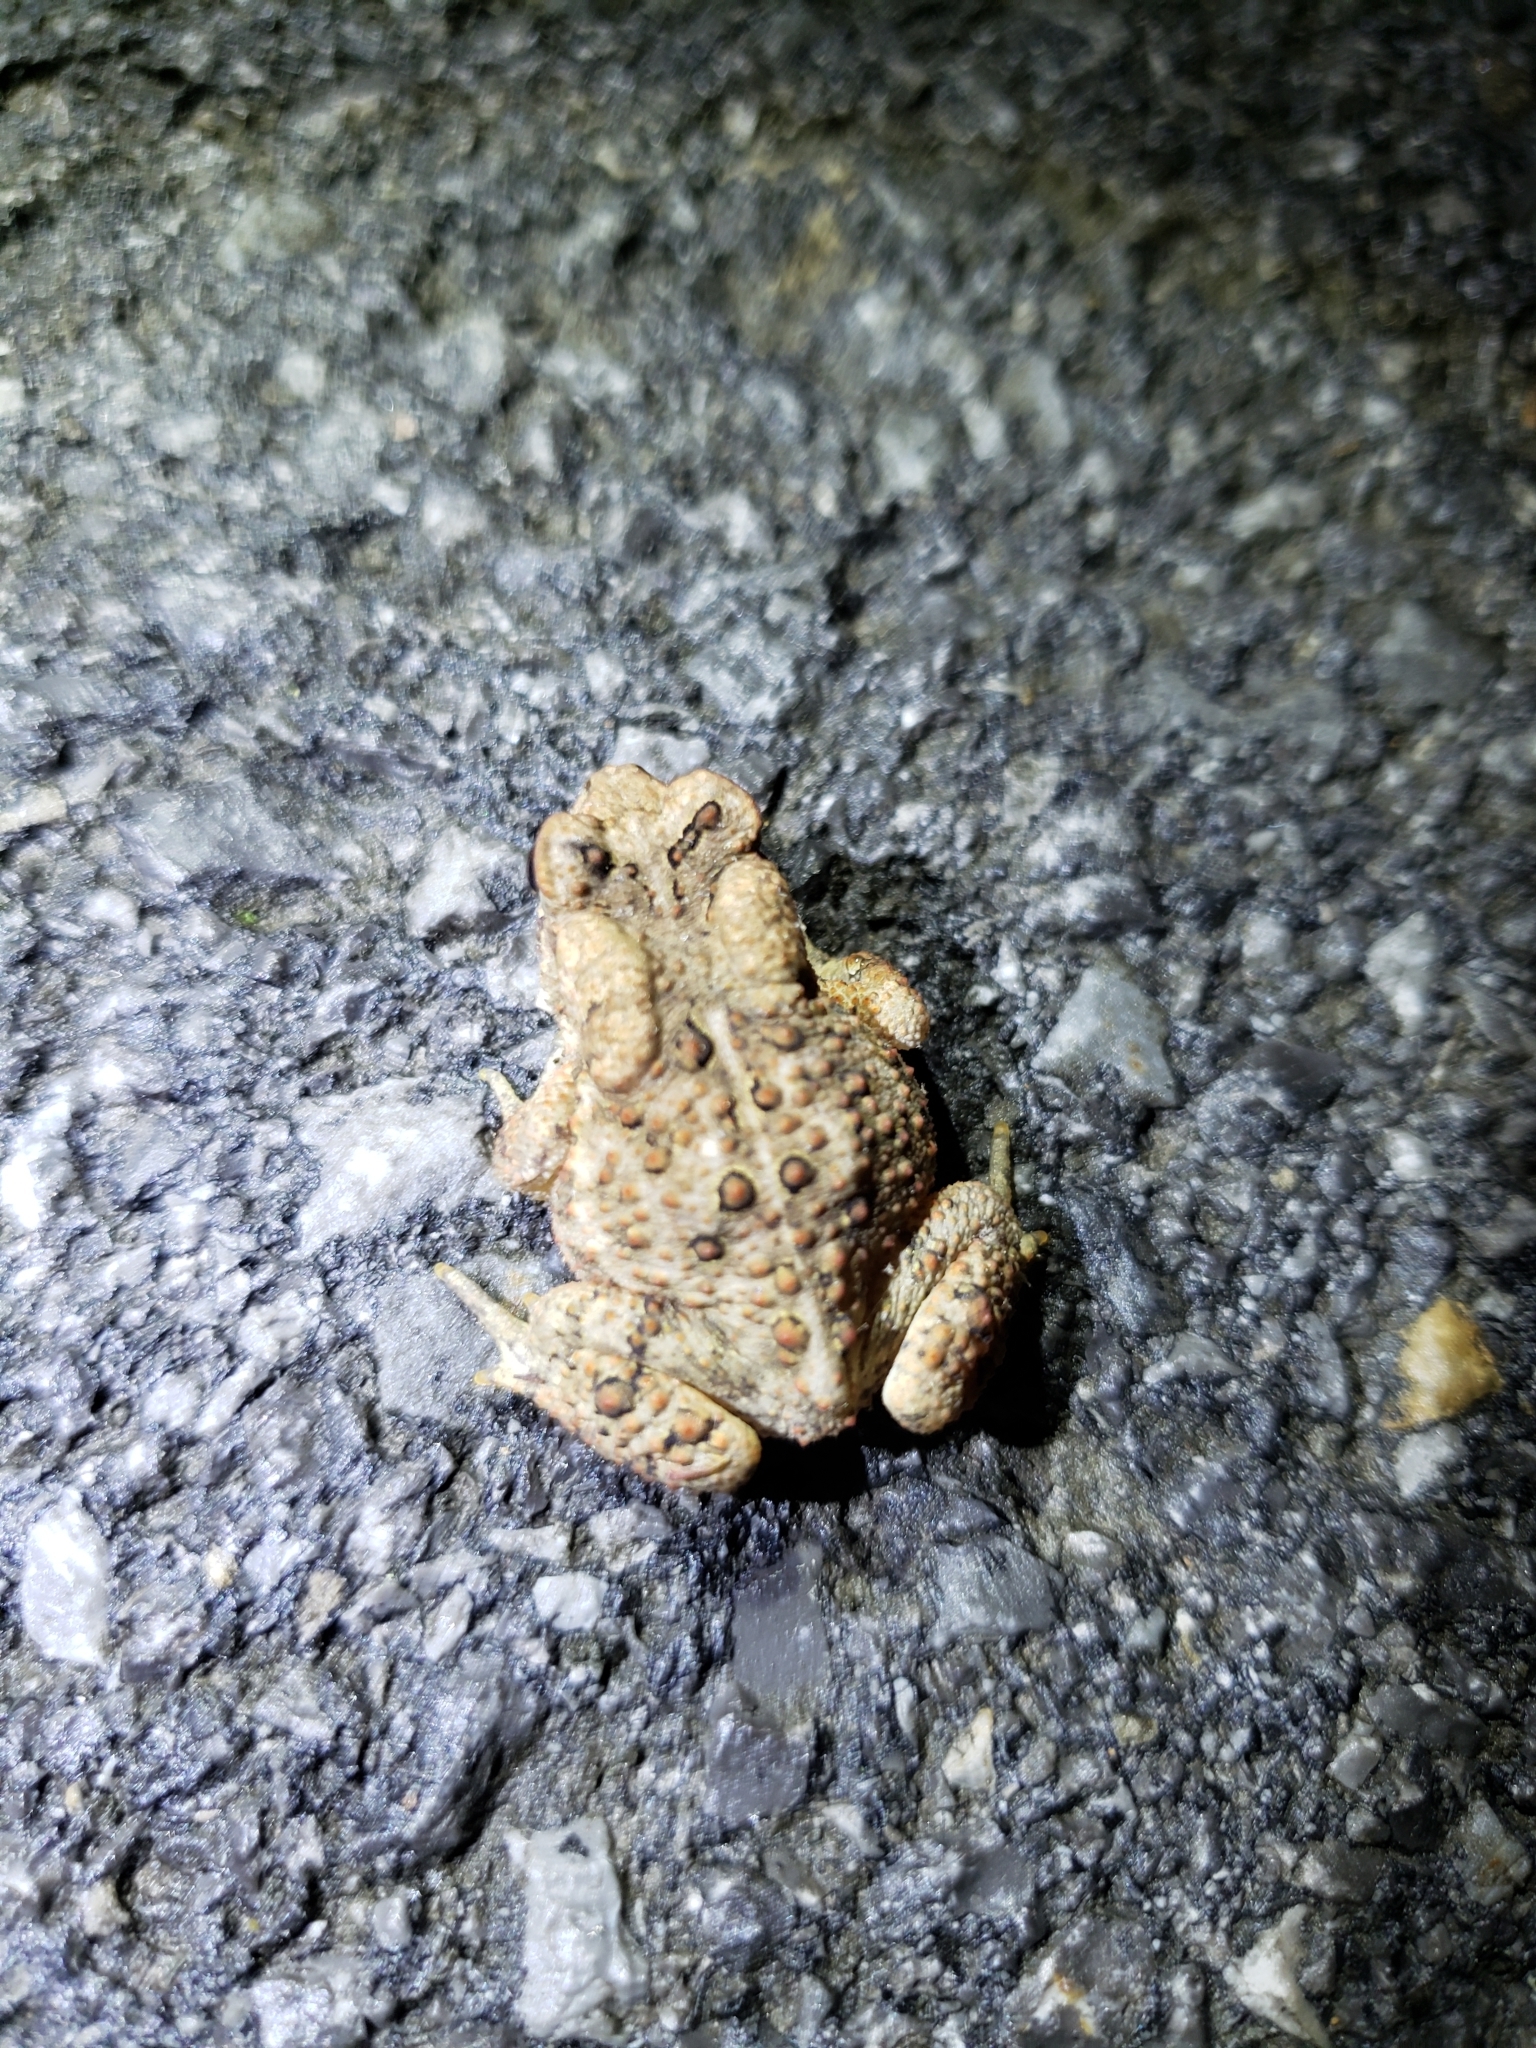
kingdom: Animalia
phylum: Chordata
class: Amphibia
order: Anura
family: Bufonidae
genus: Anaxyrus
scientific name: Anaxyrus americanus
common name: American toad
